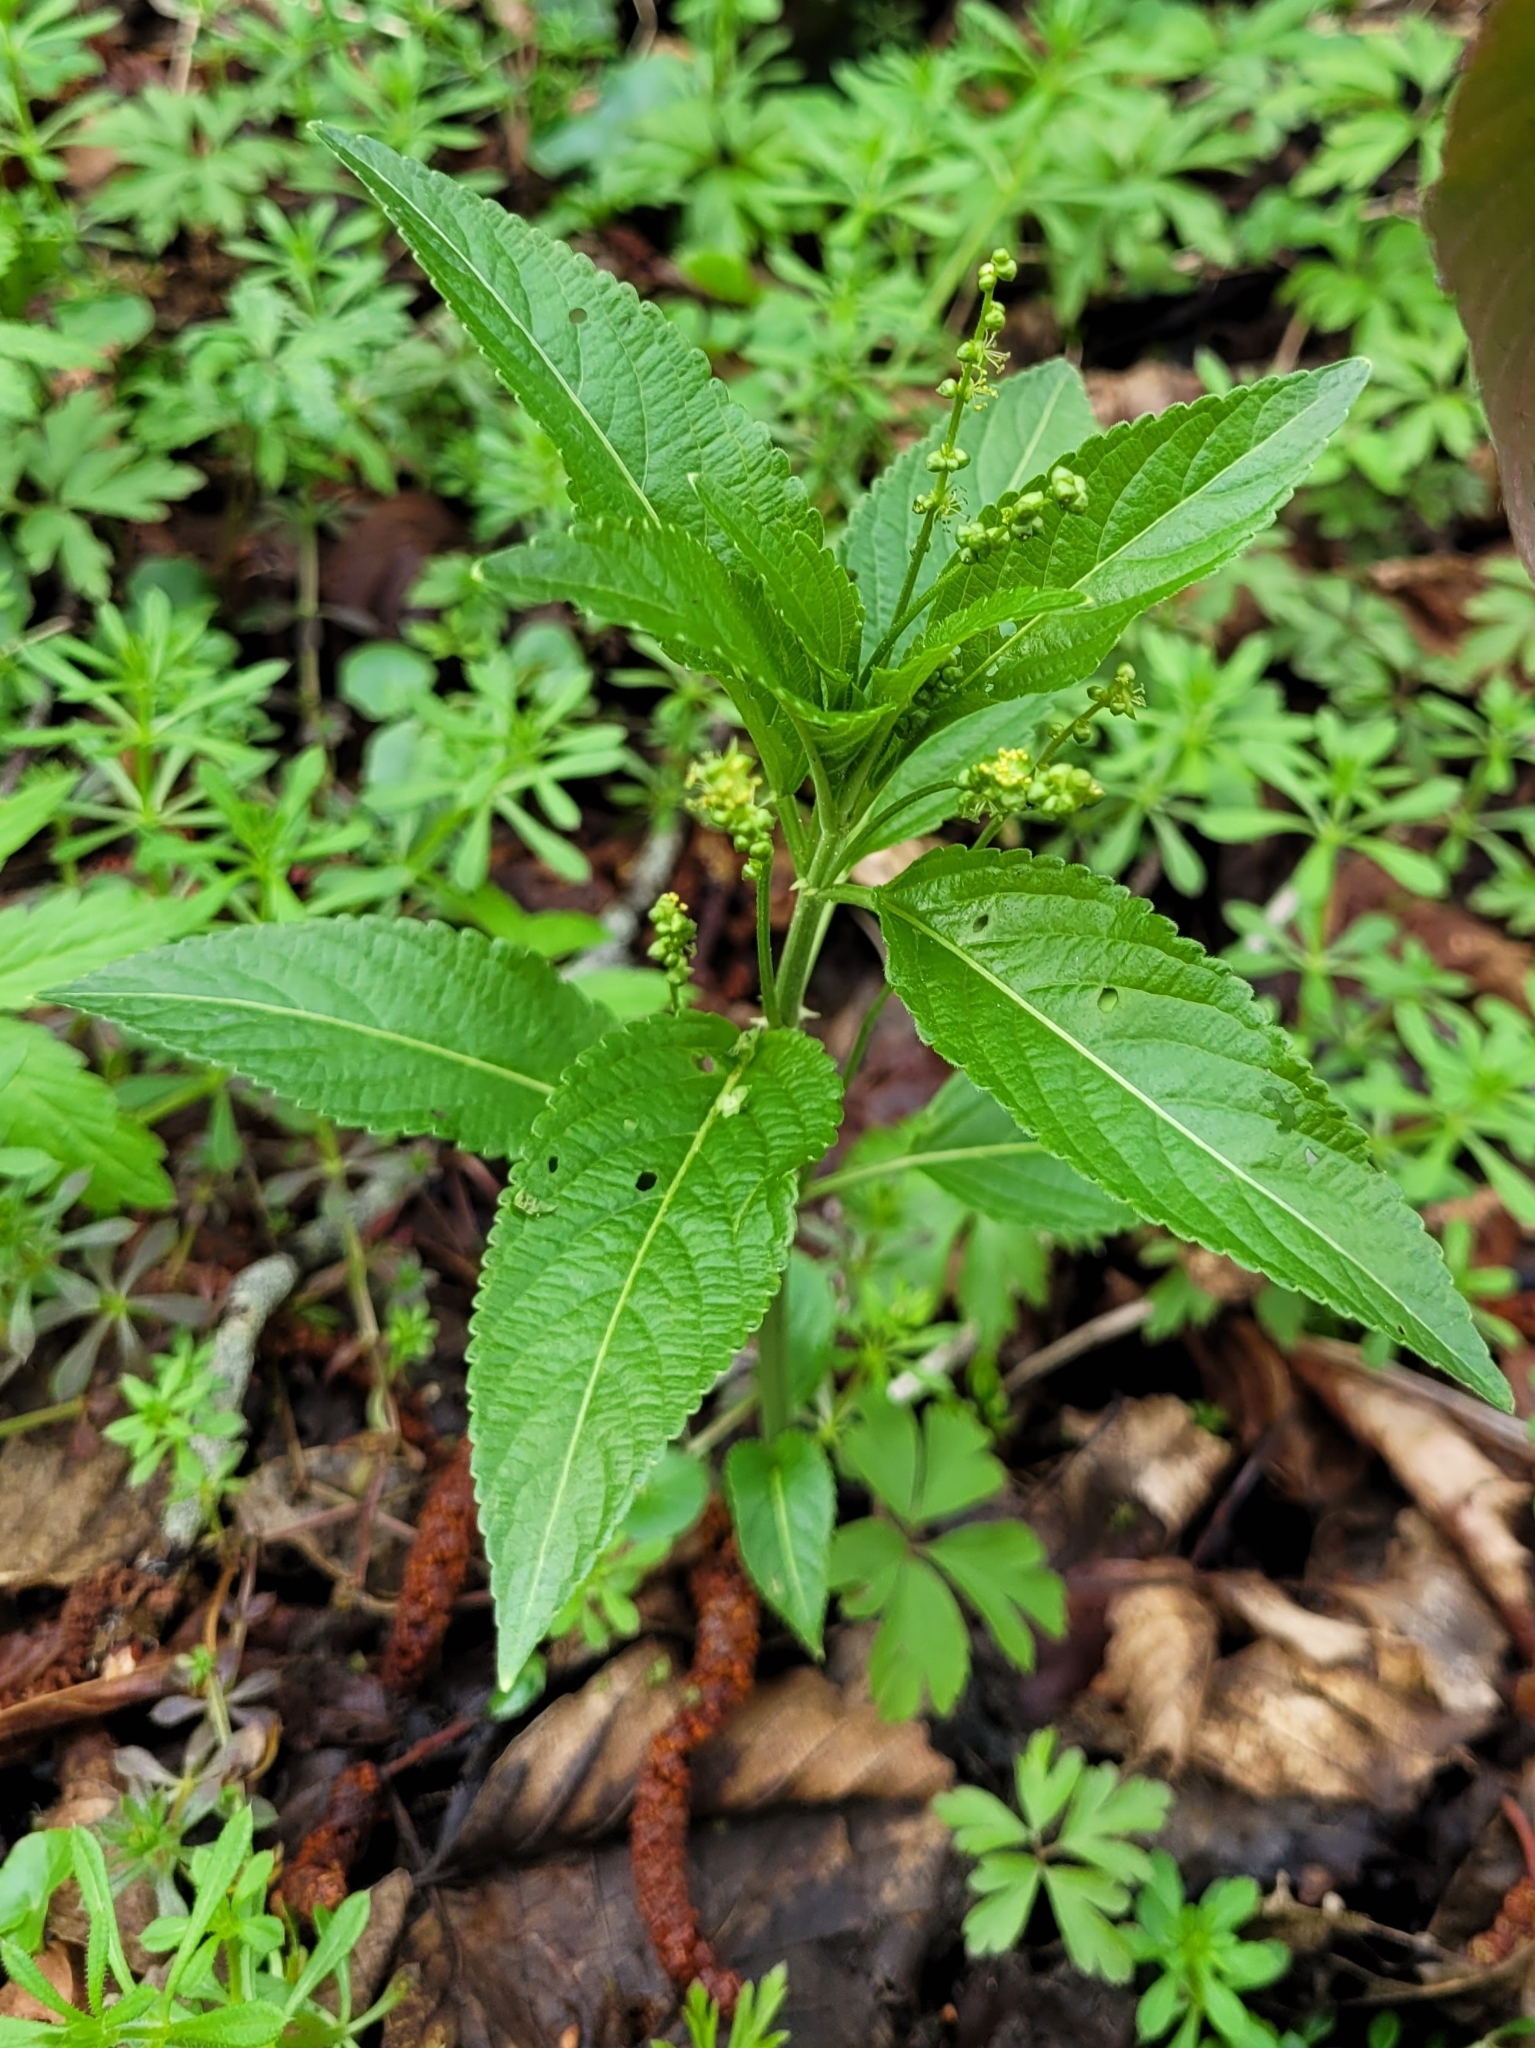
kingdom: Plantae
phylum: Tracheophyta
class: Magnoliopsida
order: Malpighiales
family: Euphorbiaceae
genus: Mercurialis
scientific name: Mercurialis perennis
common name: Dog mercury
